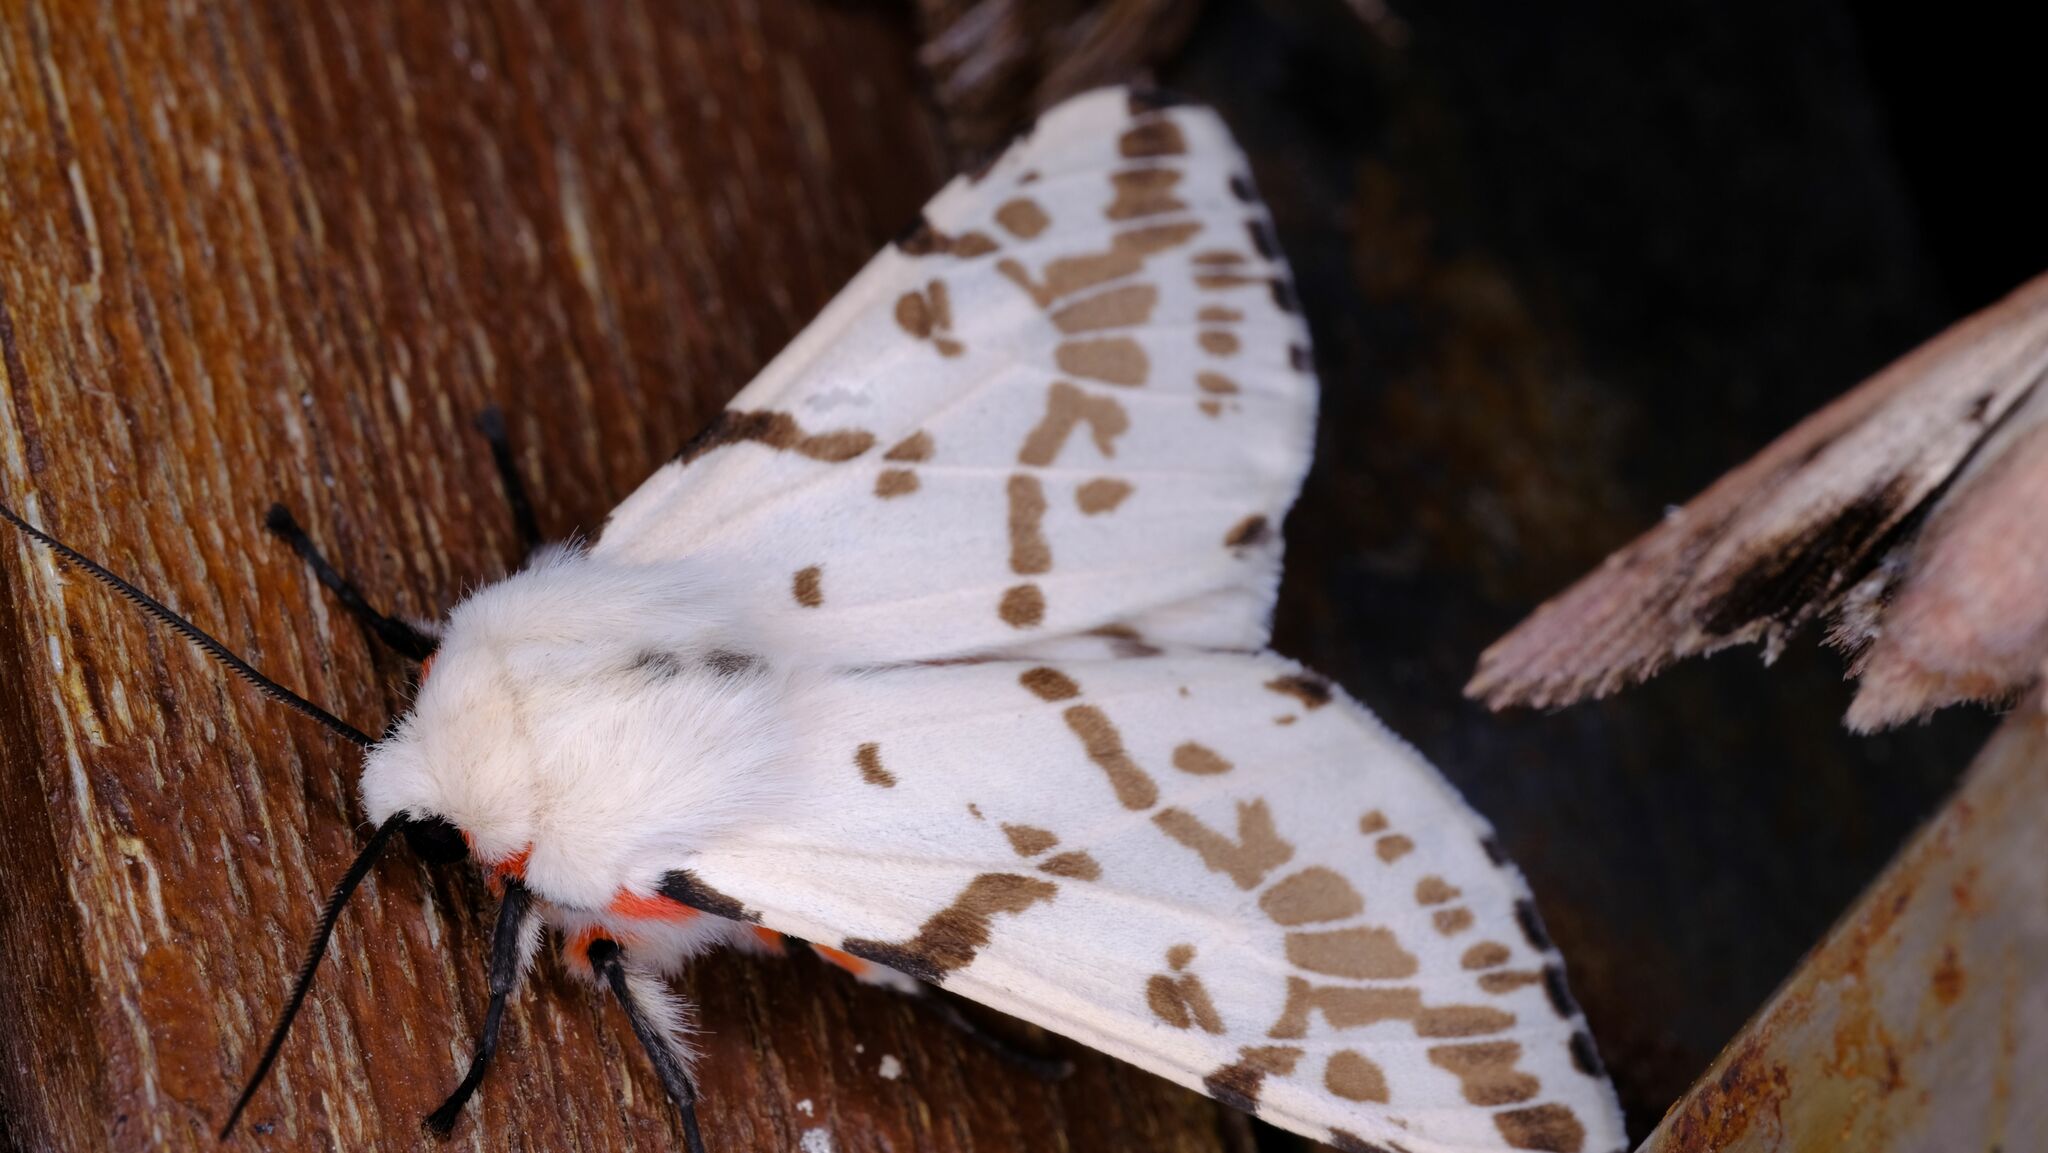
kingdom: Animalia
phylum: Arthropoda
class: Insecta
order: Lepidoptera
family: Erebidae
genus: Ardices
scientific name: Ardices canescens
